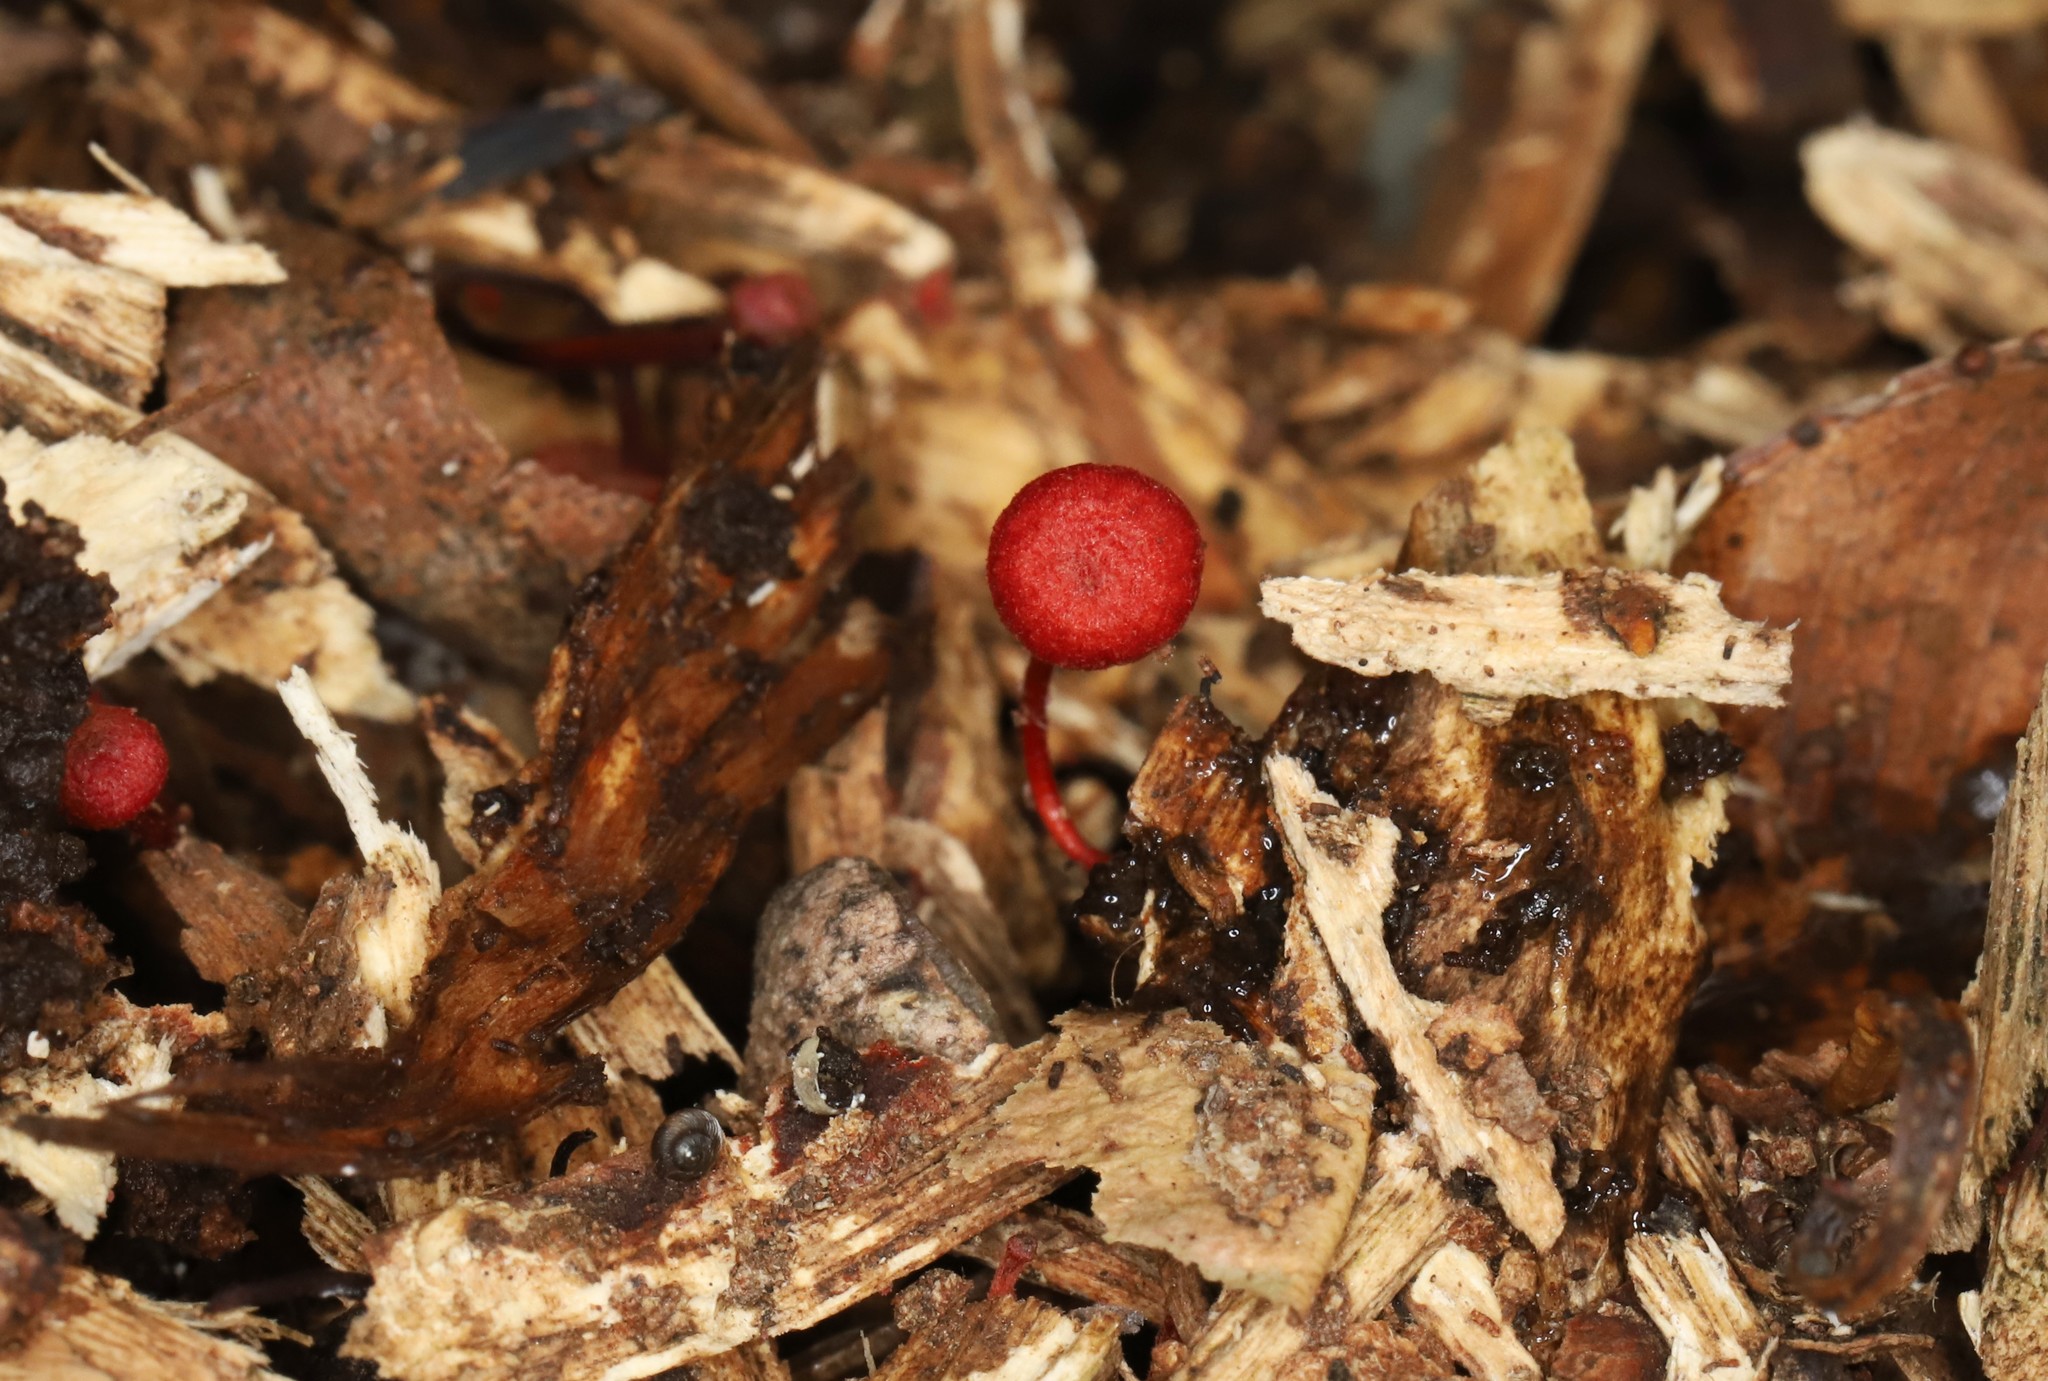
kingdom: Fungi
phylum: Basidiomycota
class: Agaricomycetes
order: Agaricales
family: Mycenaceae
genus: Cruentomycena
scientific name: Cruentomycena viscidocruenta
